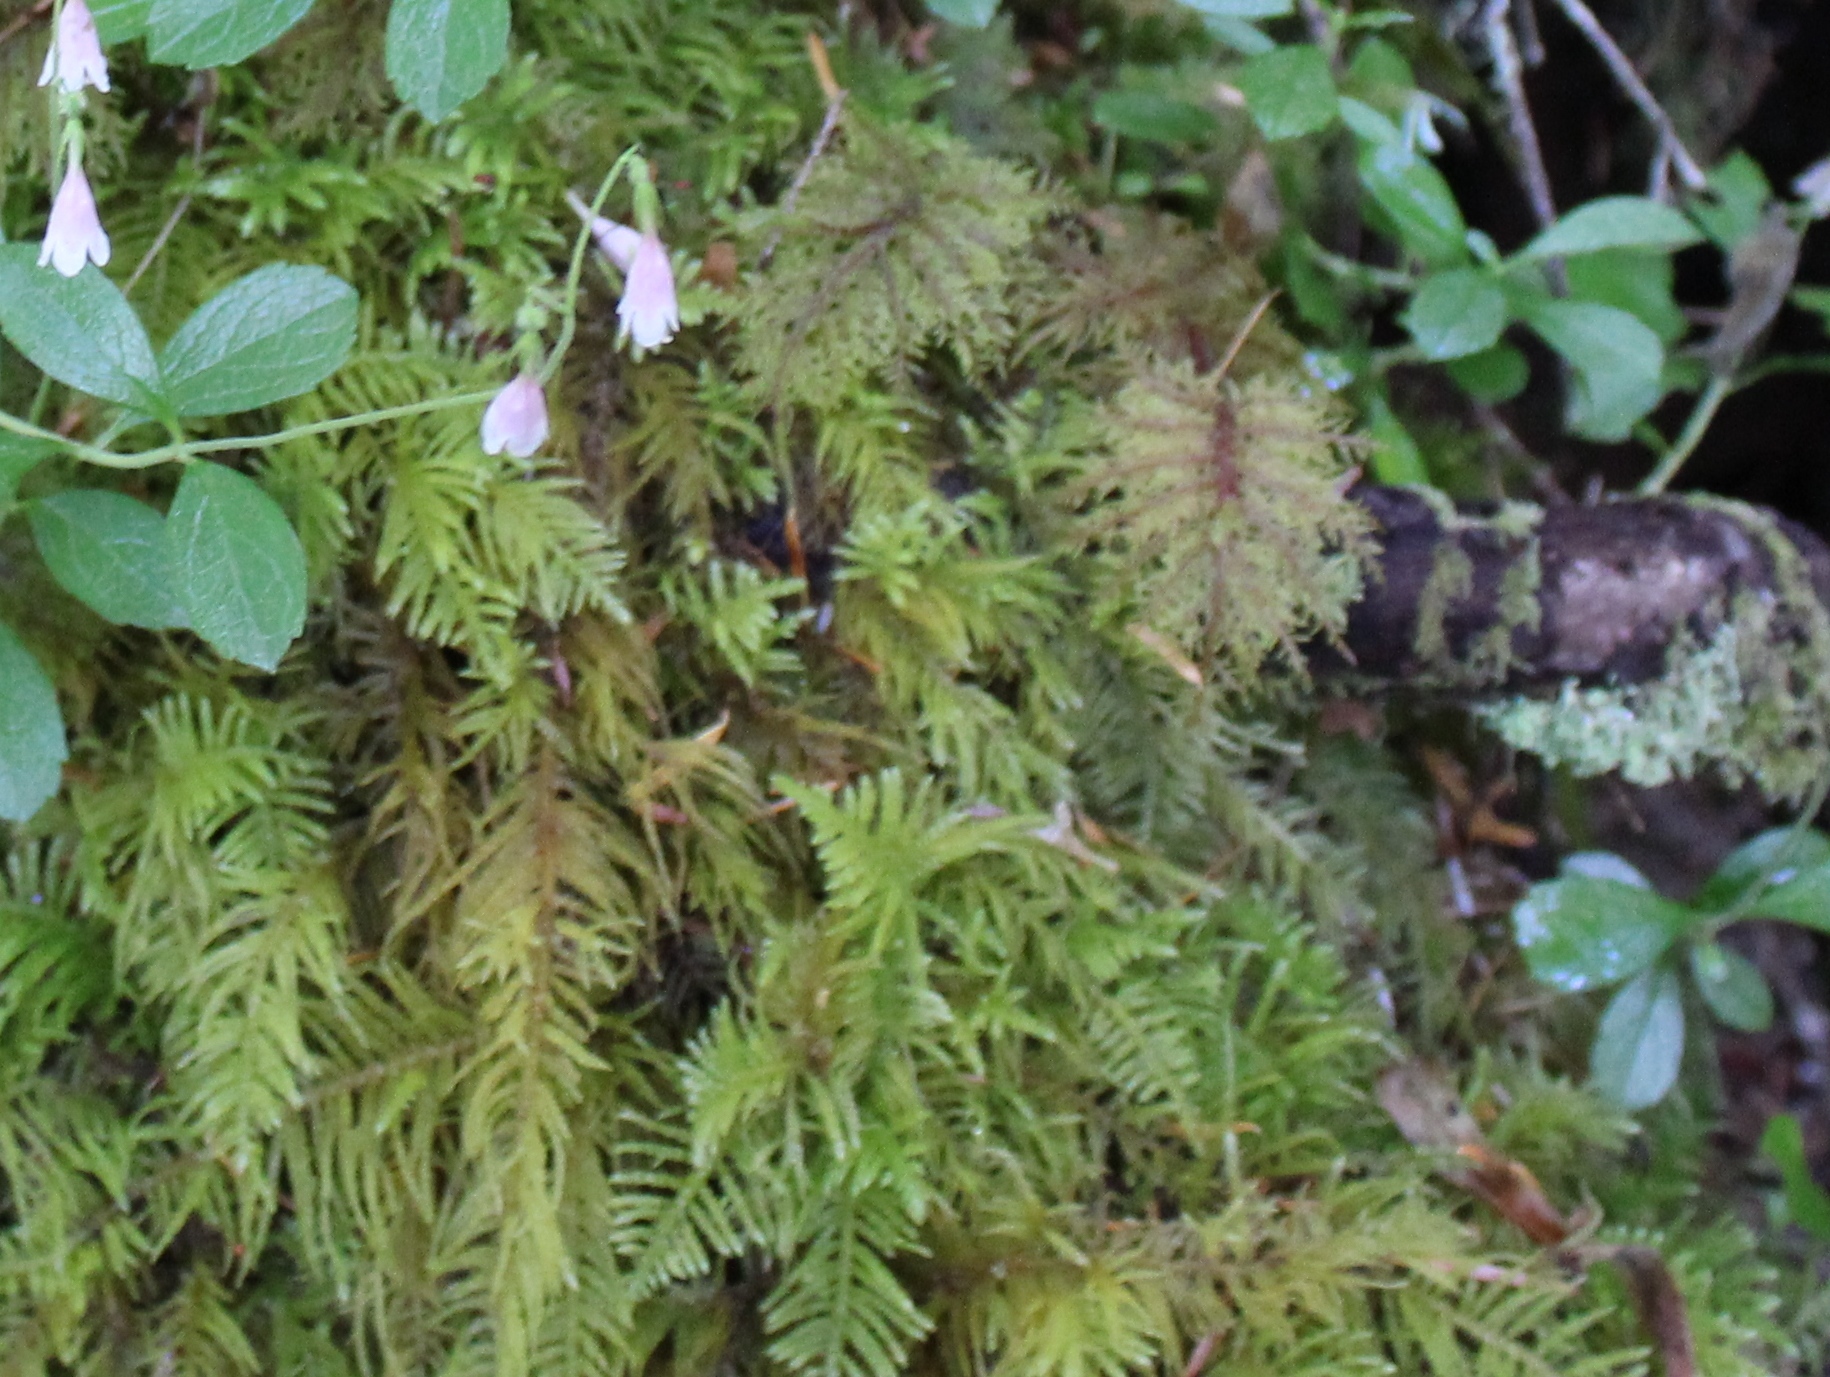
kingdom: Plantae
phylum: Bryophyta
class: Bryopsida
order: Hypnales
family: Brachytheciaceae
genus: Kindbergia
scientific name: Kindbergia oregana
